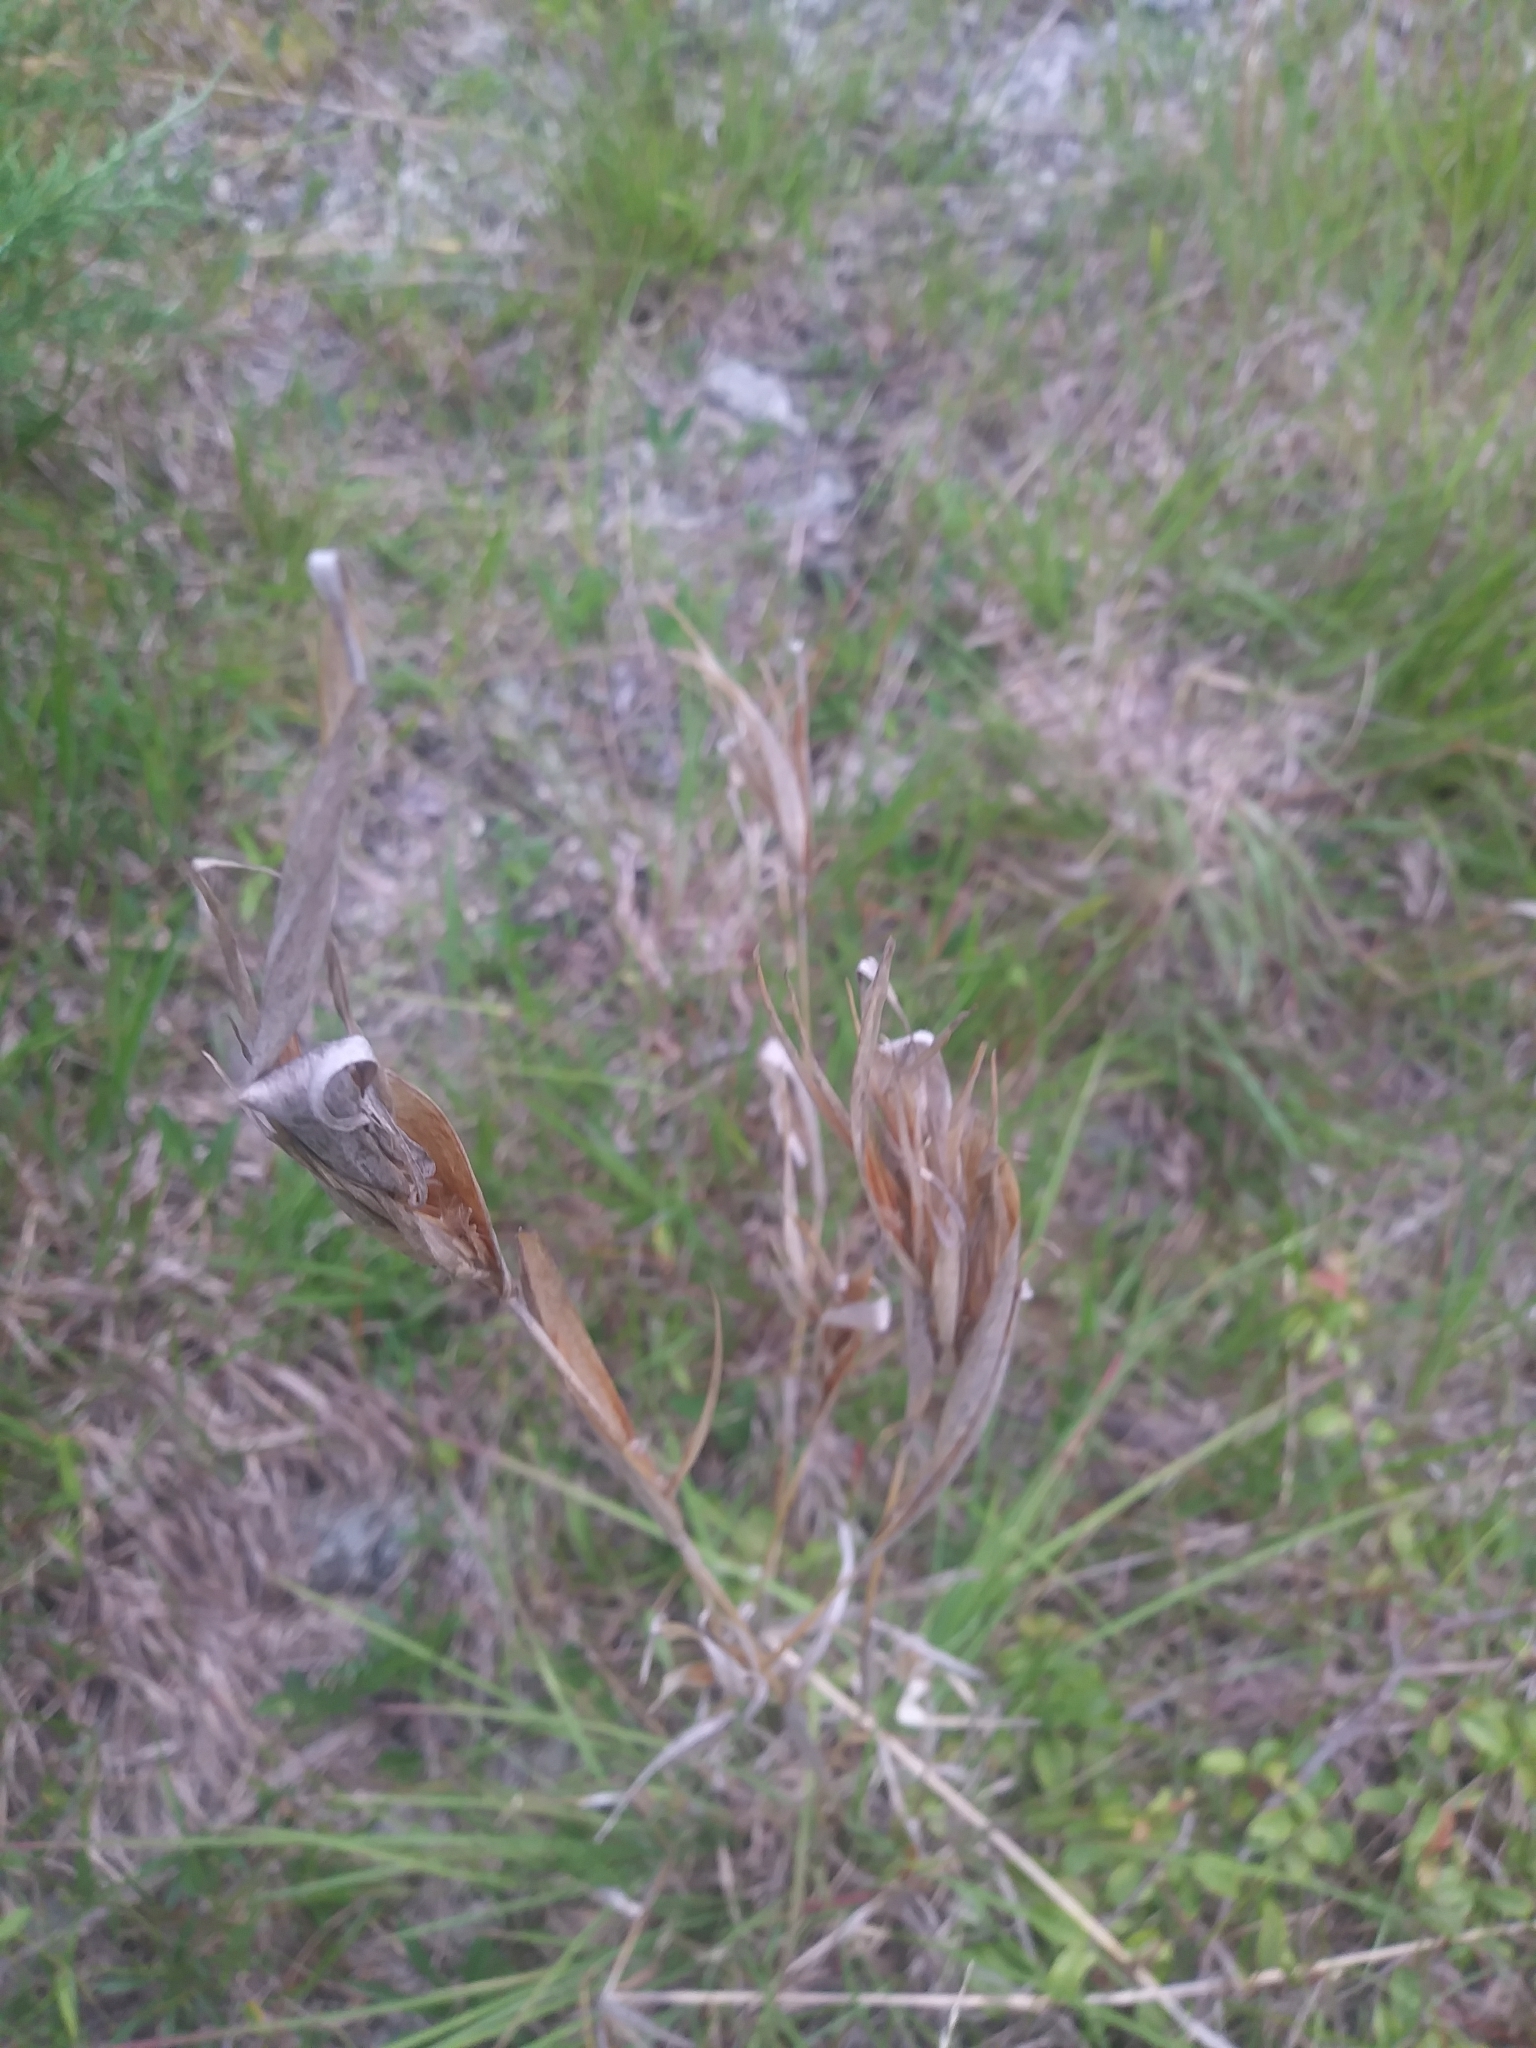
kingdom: Plantae
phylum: Tracheophyta
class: Liliopsida
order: Poales
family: Poaceae
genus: Andropogon
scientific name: Andropogon gyrans
